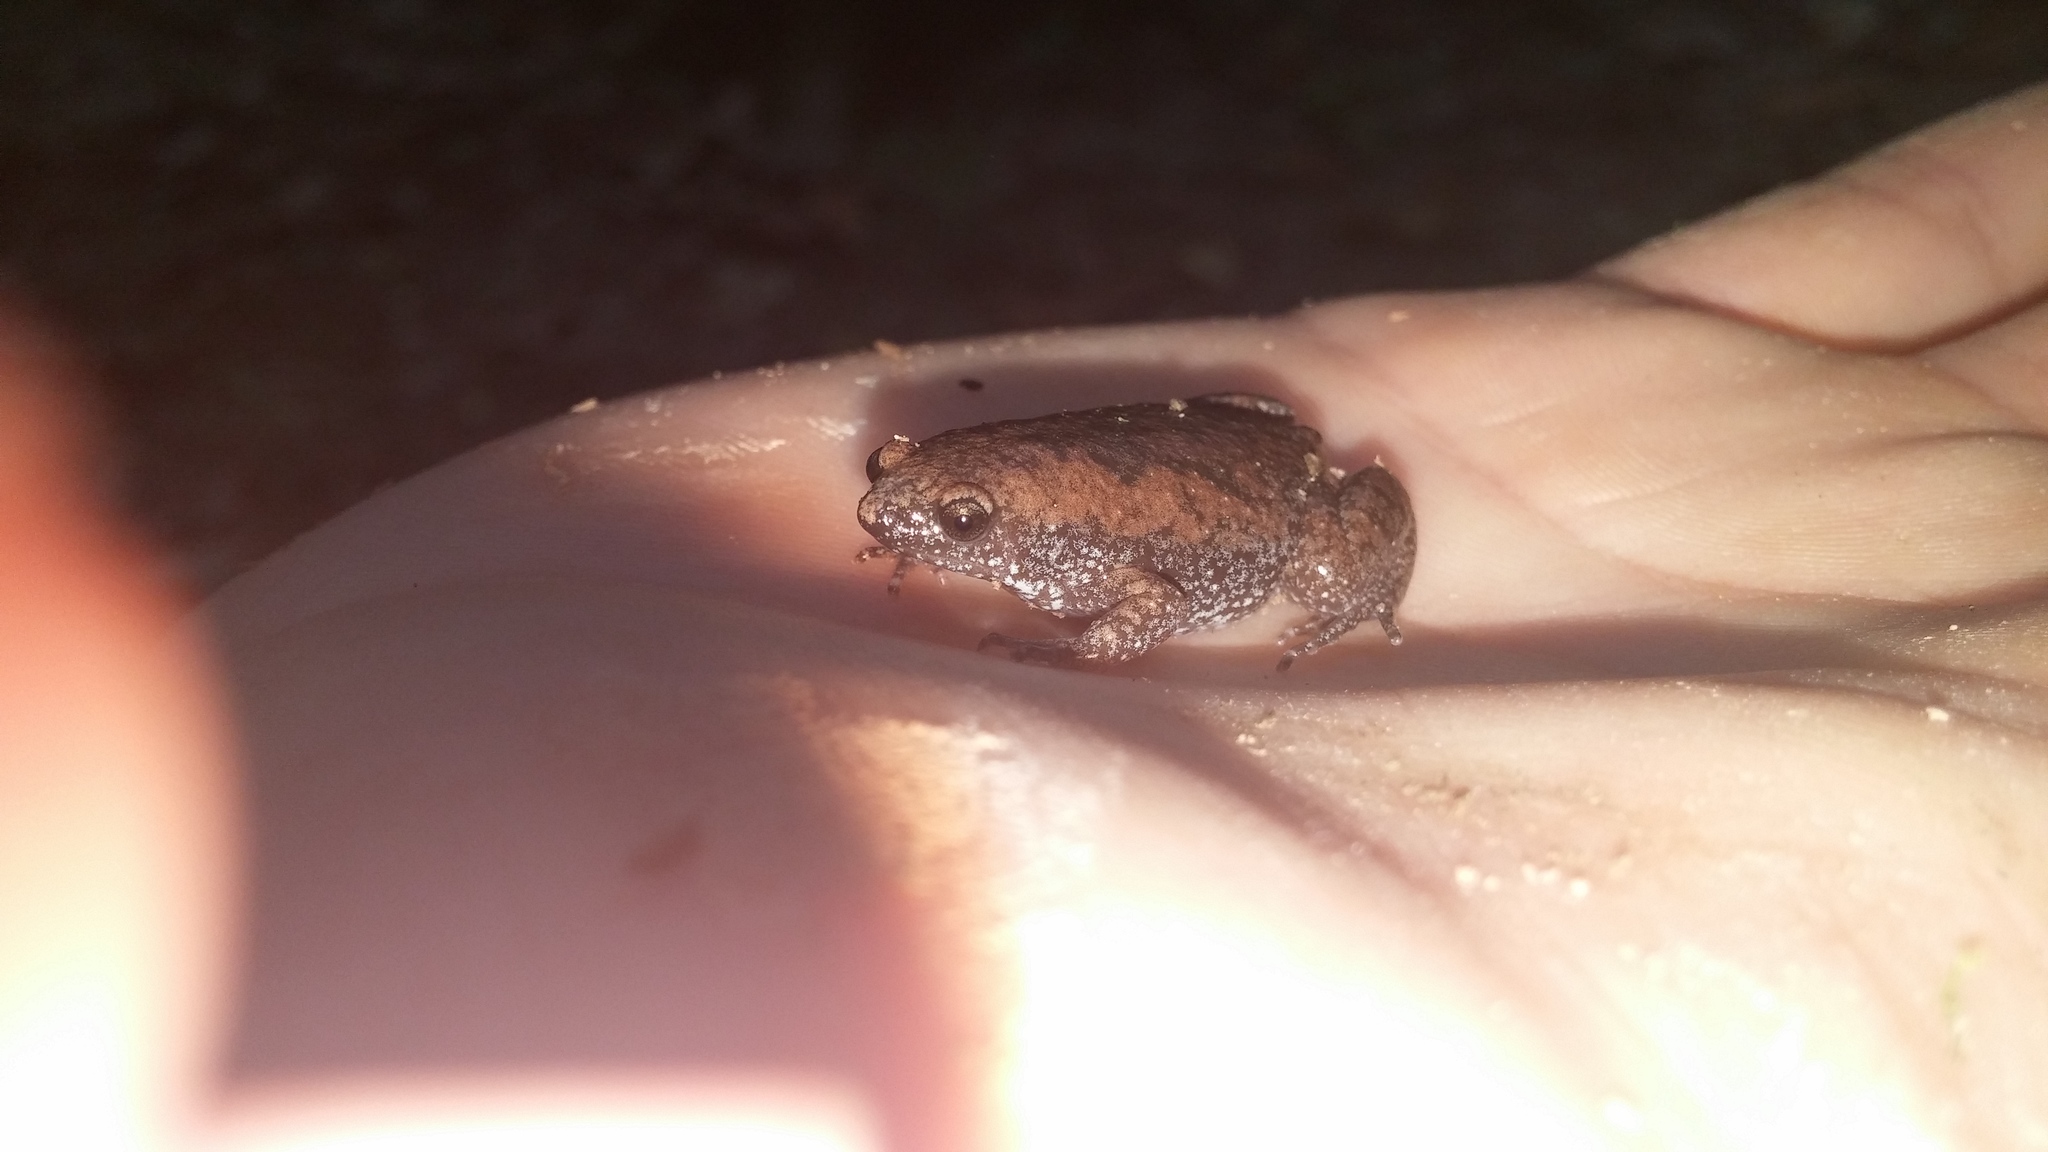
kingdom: Animalia
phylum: Chordata
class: Amphibia
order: Anura
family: Microhylidae
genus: Gastrophryne
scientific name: Gastrophryne carolinensis
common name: Eastern narrowmouth toad
